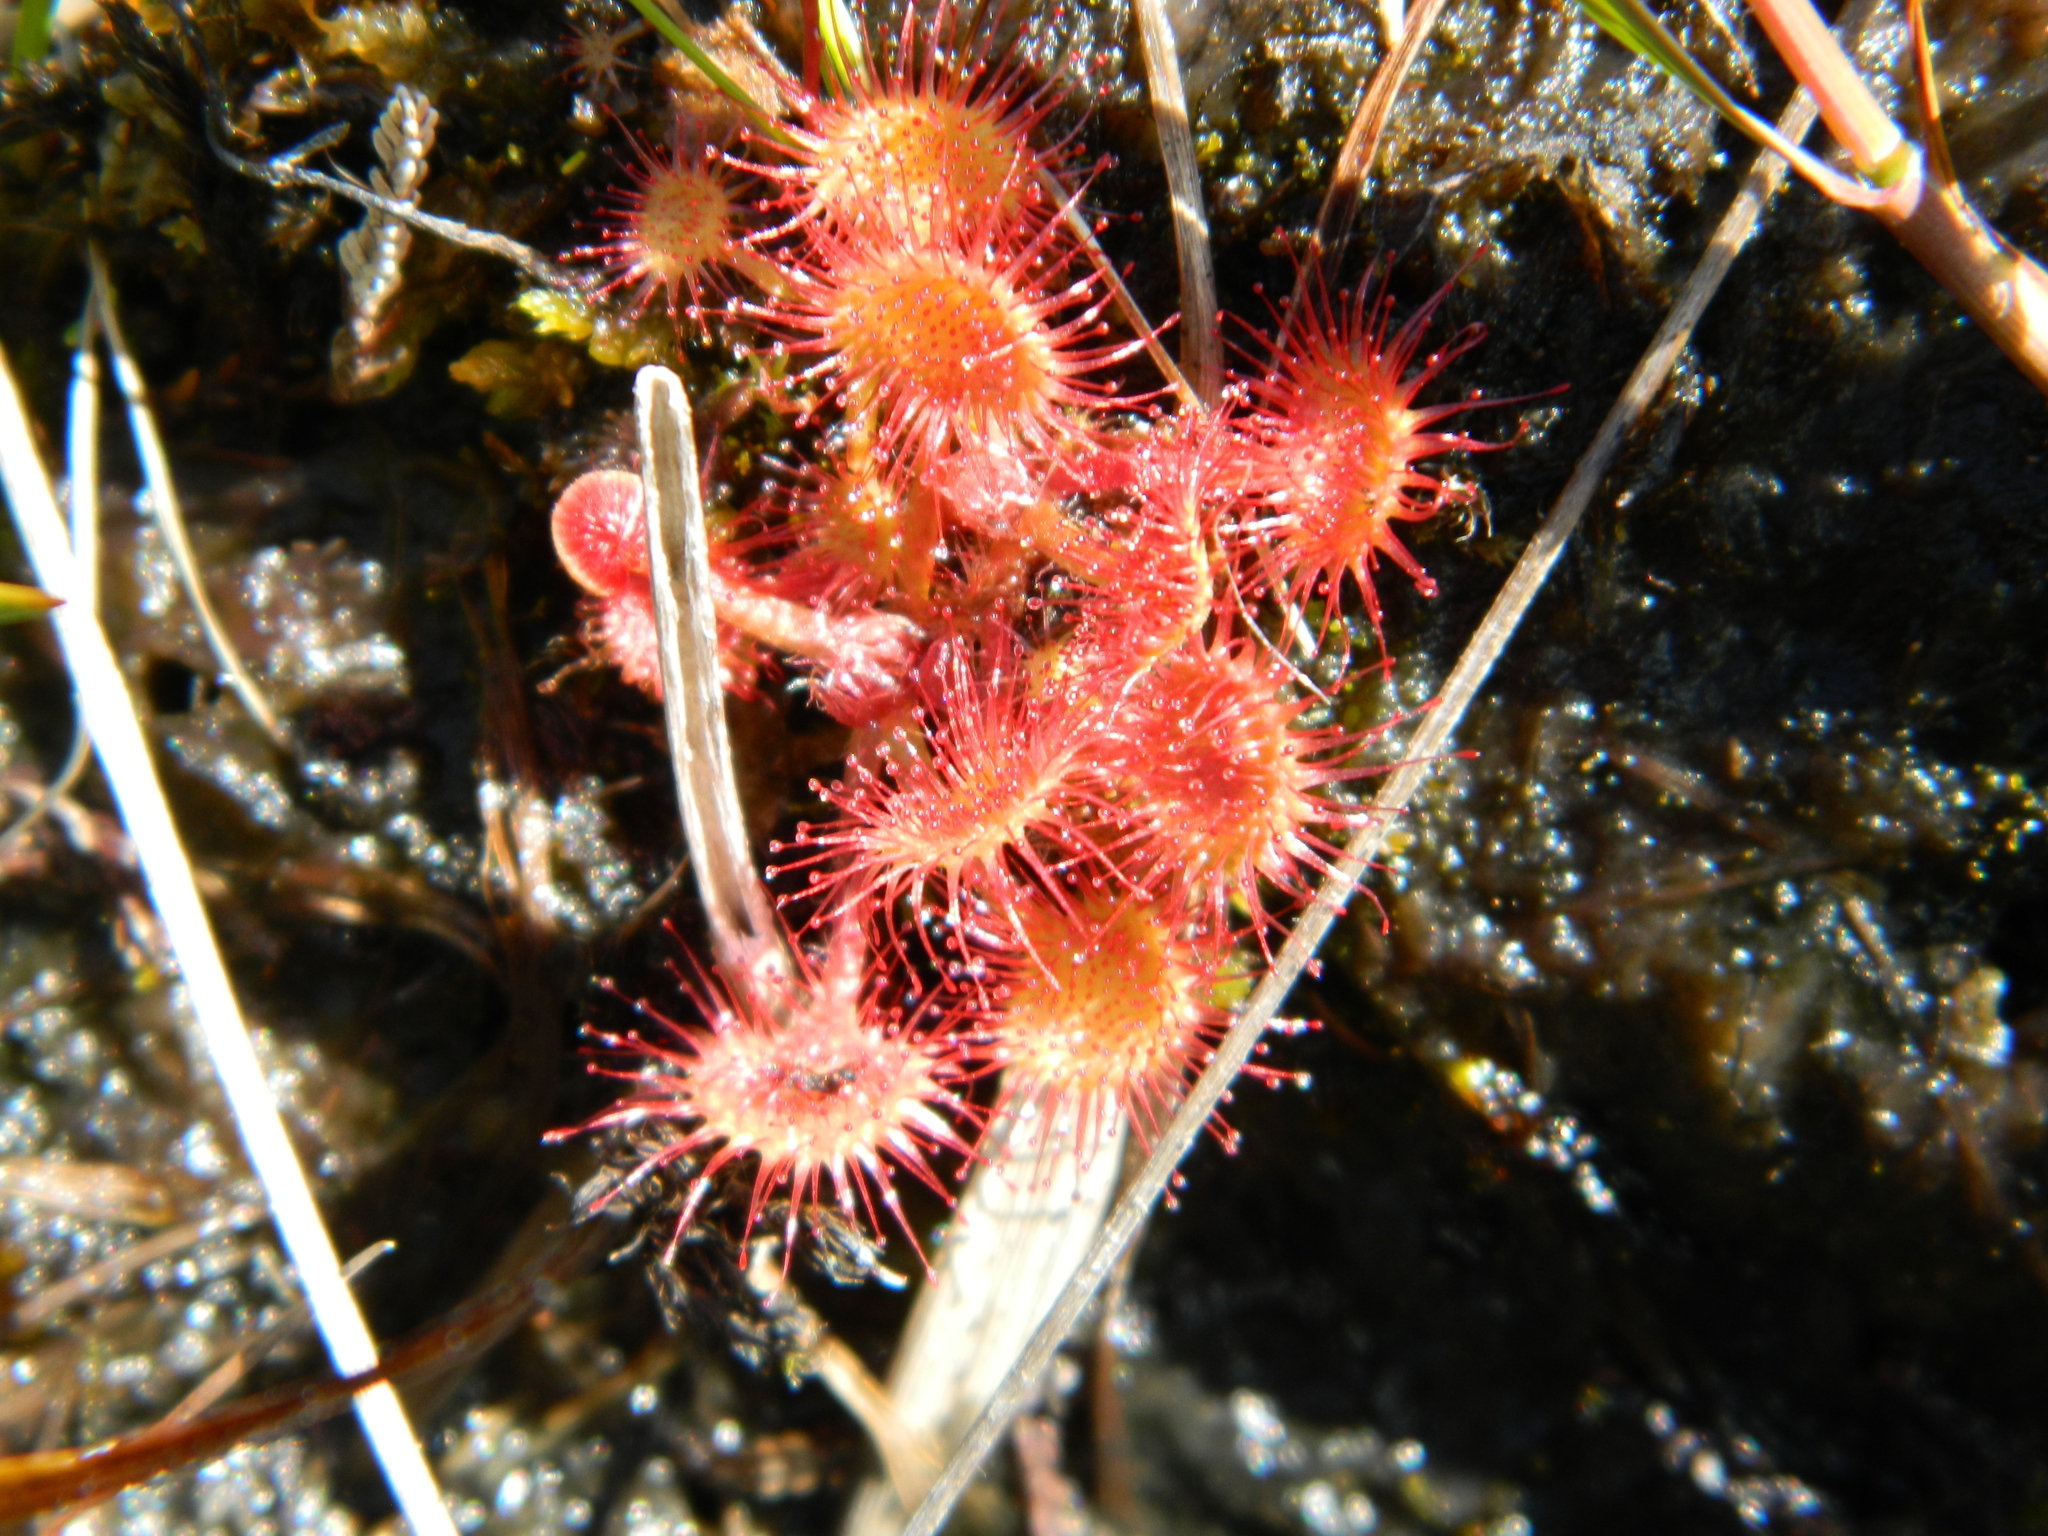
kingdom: Plantae
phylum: Tracheophyta
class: Magnoliopsida
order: Caryophyllales
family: Droseraceae
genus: Drosera
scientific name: Drosera rotundifolia
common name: Round-leaved sundew
